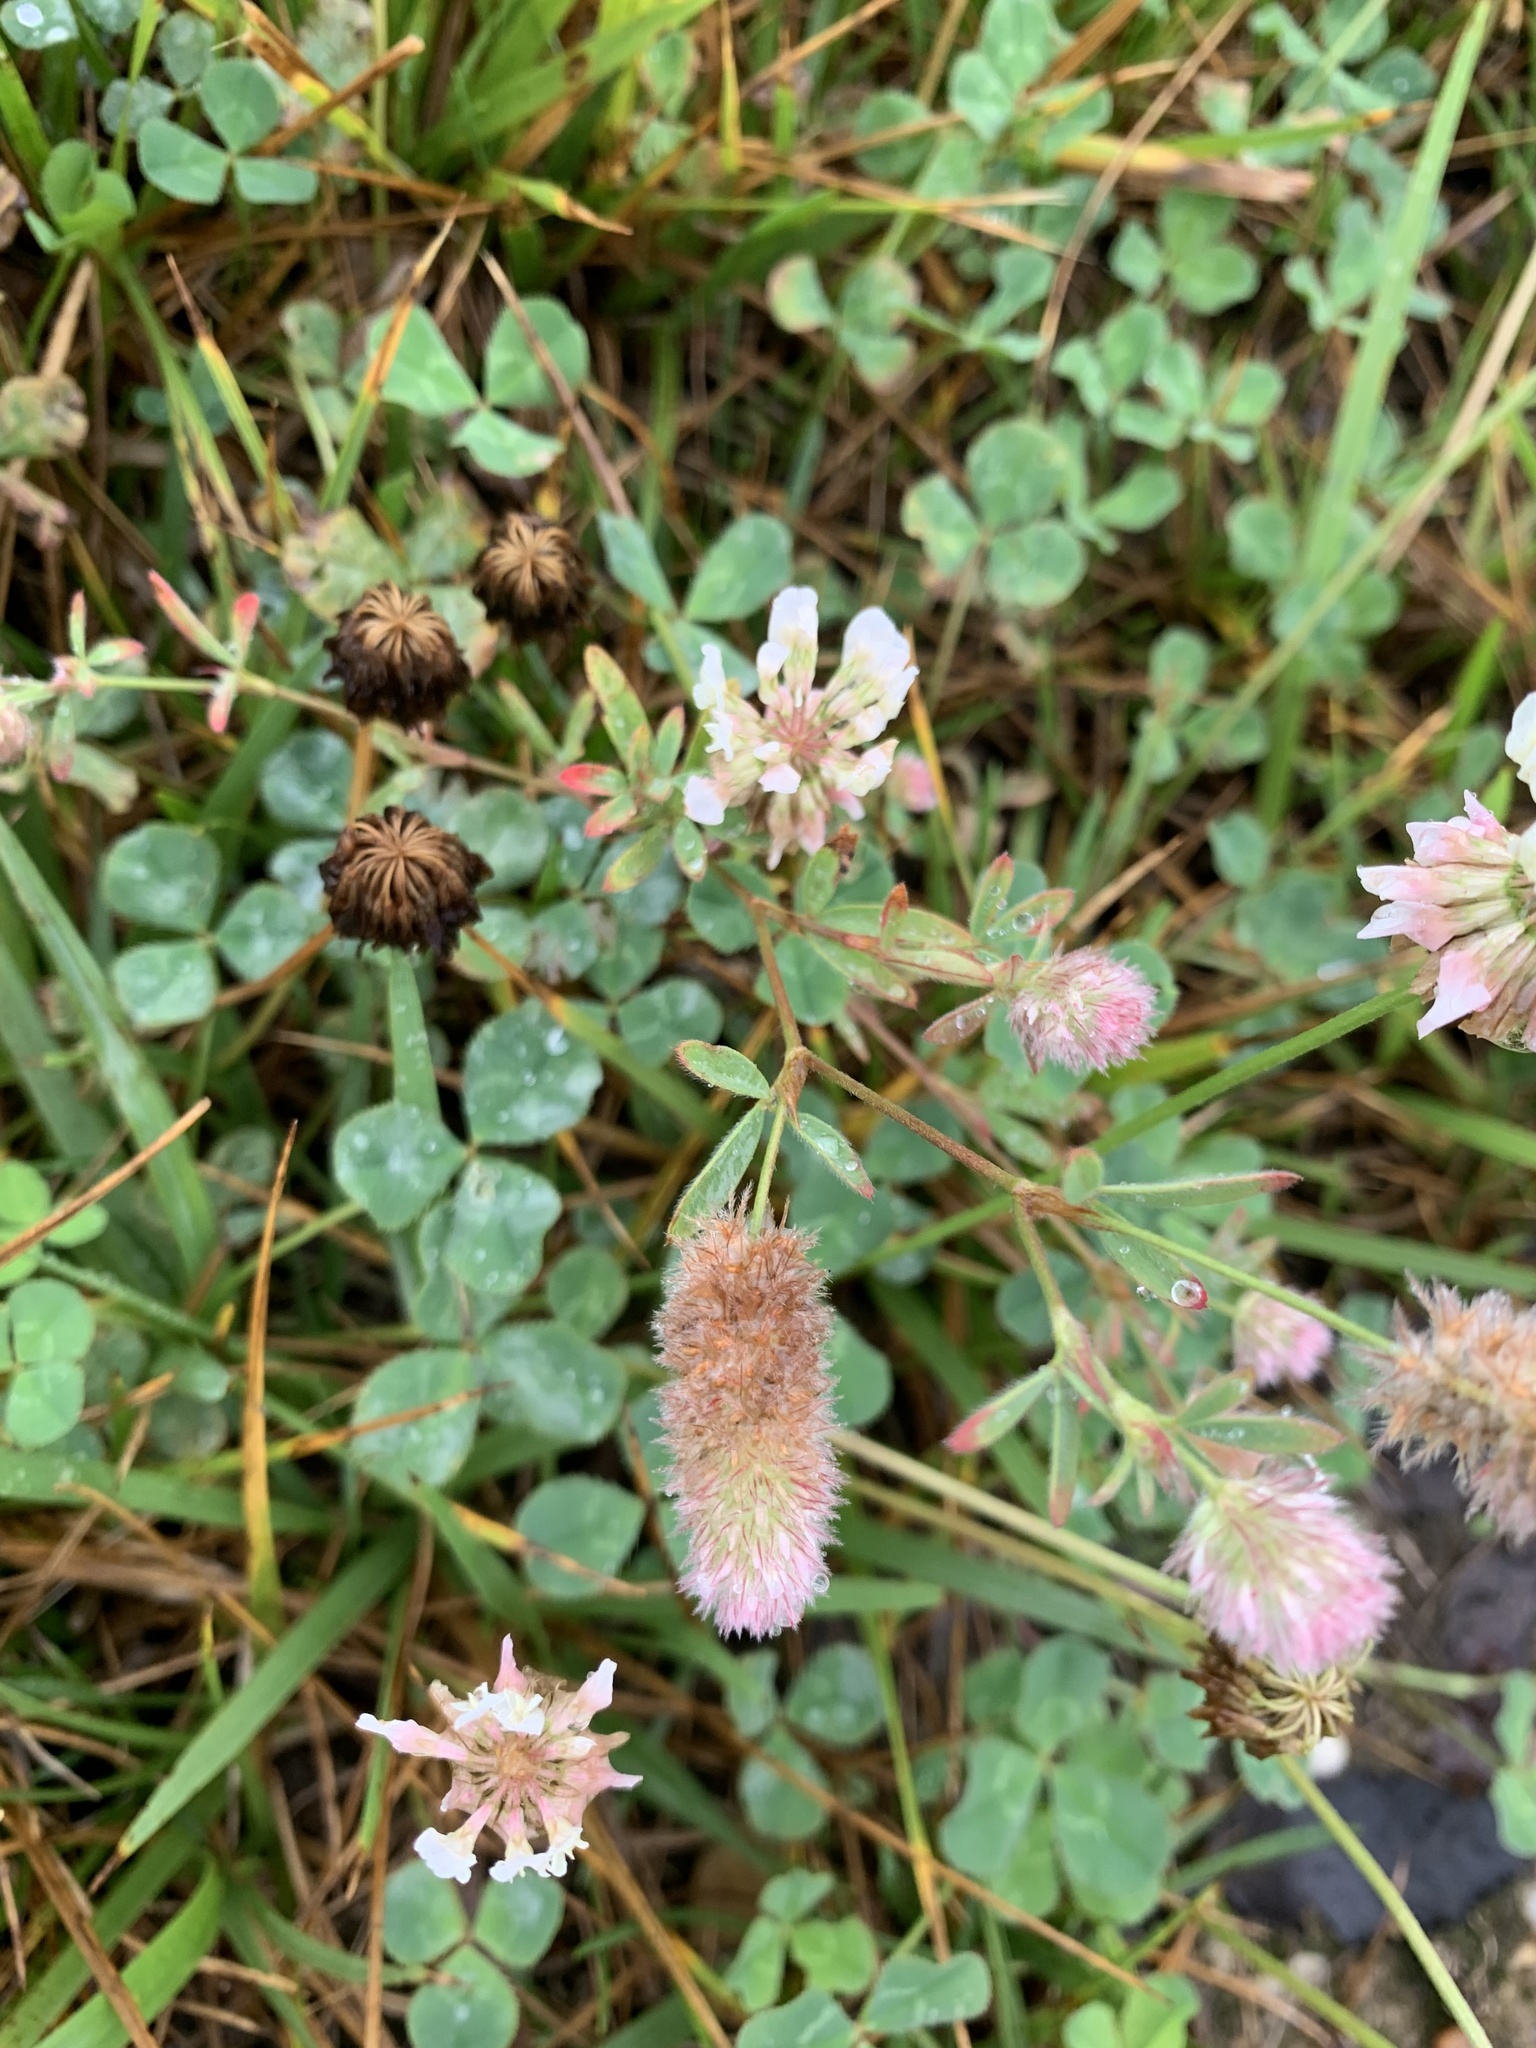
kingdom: Plantae
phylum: Tracheophyta
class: Magnoliopsida
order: Fabales
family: Fabaceae
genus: Trifolium
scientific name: Trifolium arvense
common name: Hare's-foot clover
